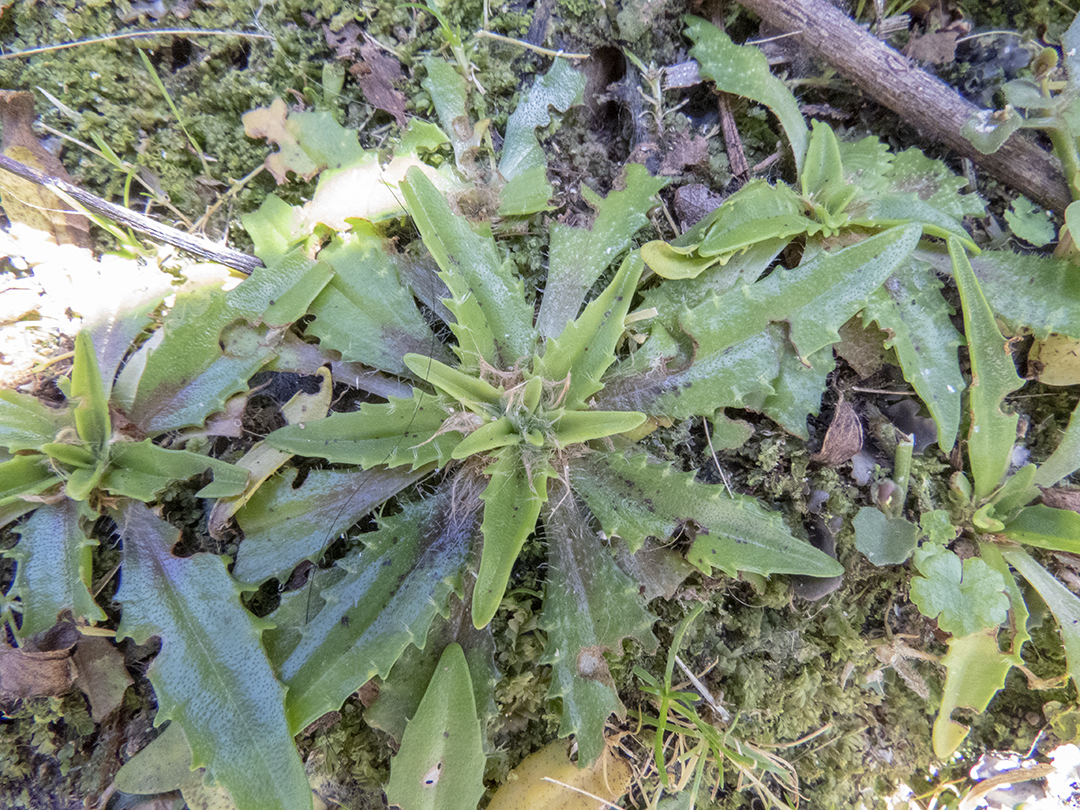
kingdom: Plantae
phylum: Tracheophyta
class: Magnoliopsida
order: Lamiales
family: Plantaginaceae
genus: Plantago
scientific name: Plantago triandra
